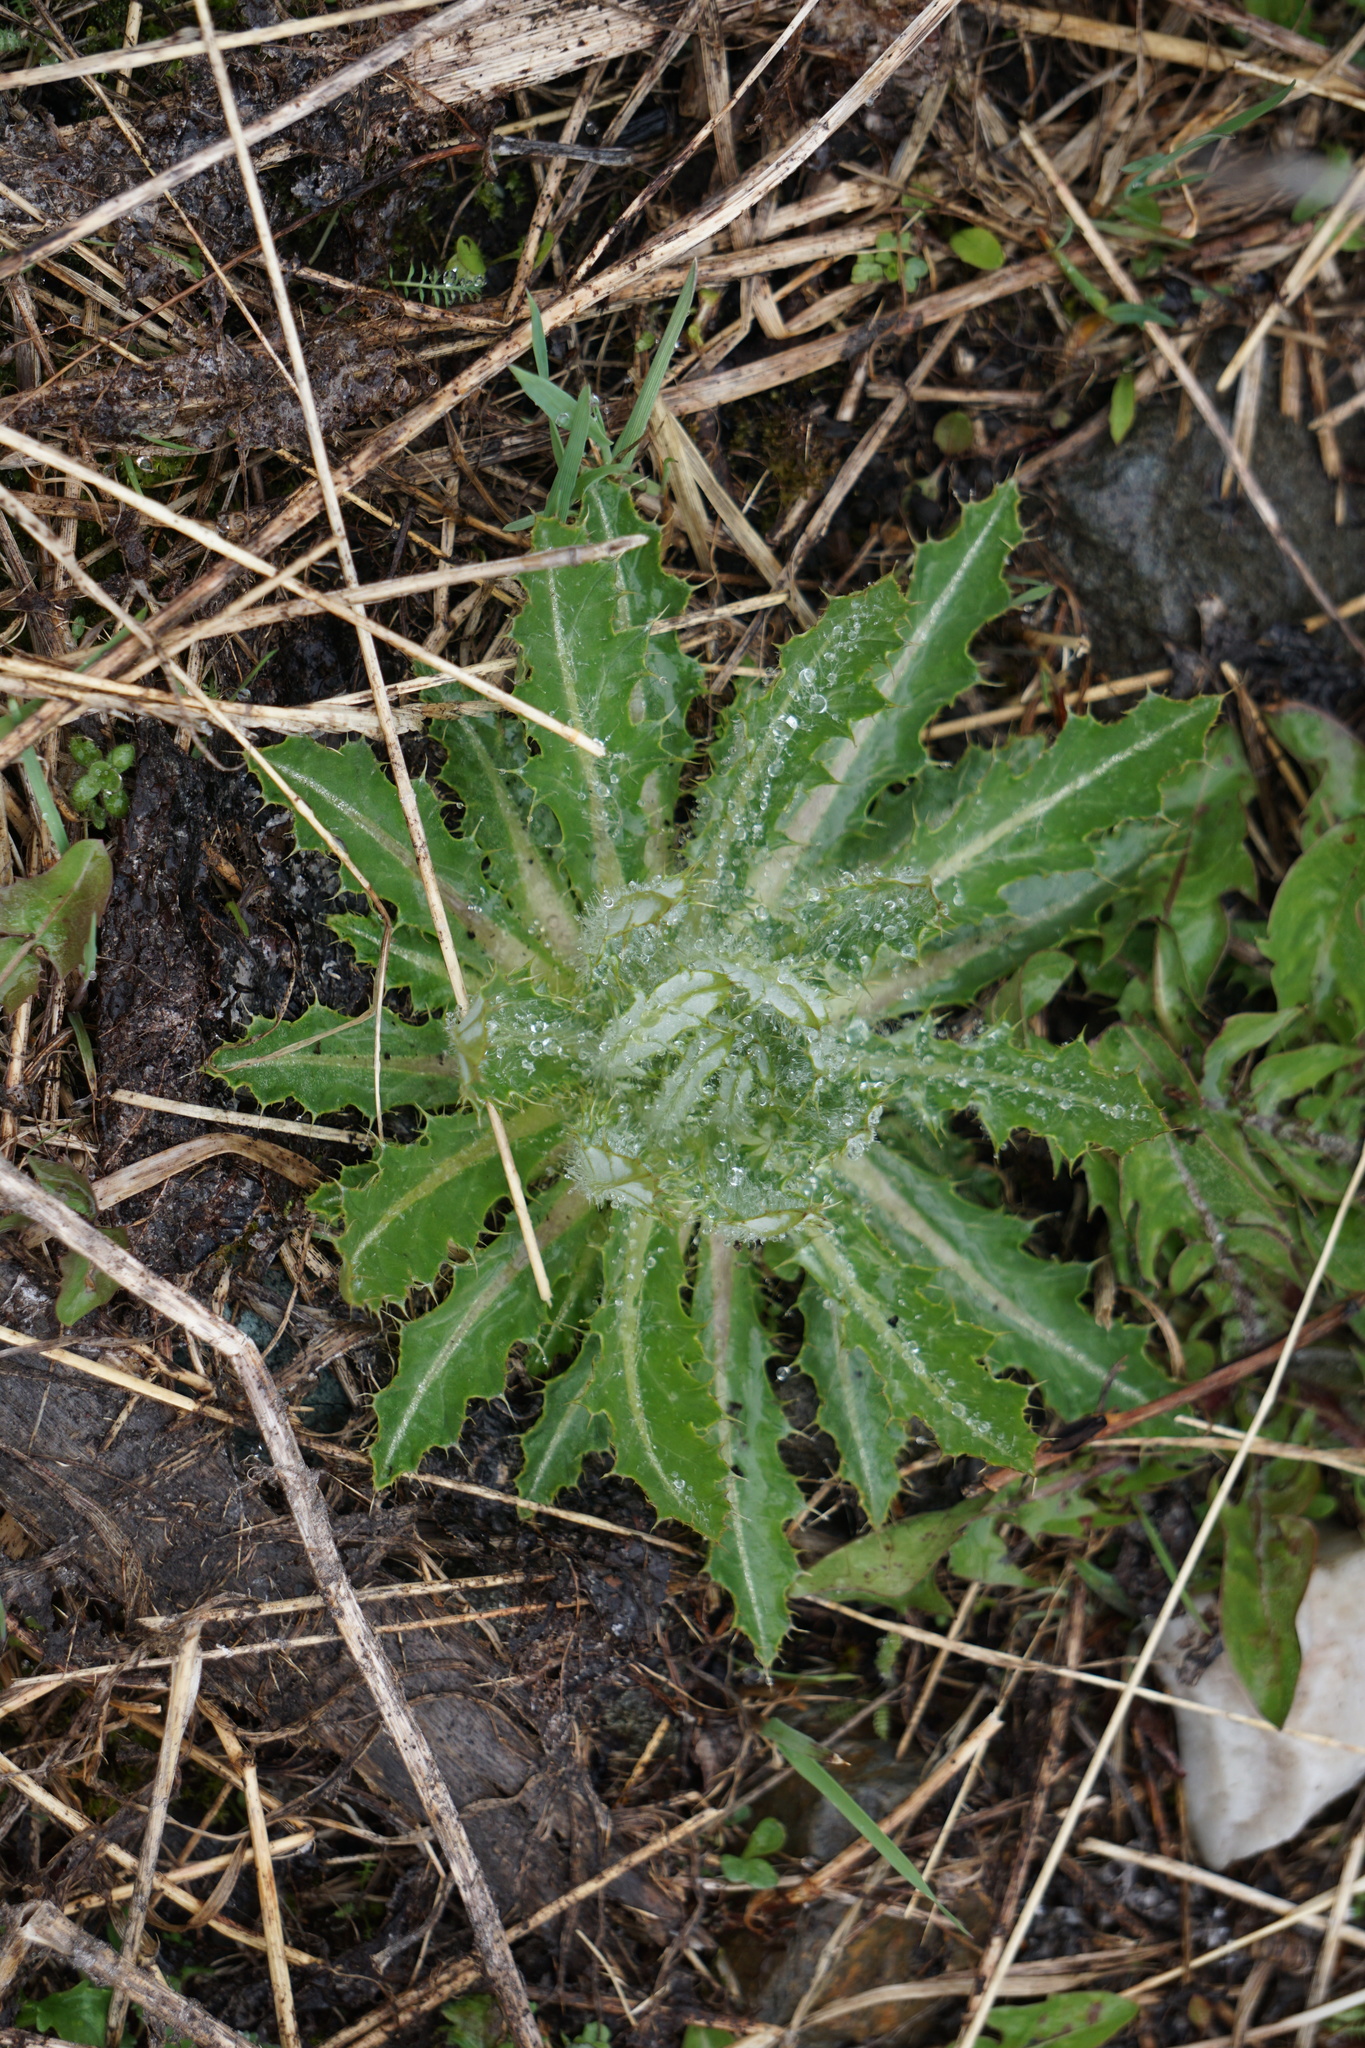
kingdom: Plantae
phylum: Tracheophyta
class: Magnoliopsida
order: Asterales
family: Asteraceae
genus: Cirsium
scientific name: Cirsium hookerianum
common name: Hooker's thistle
